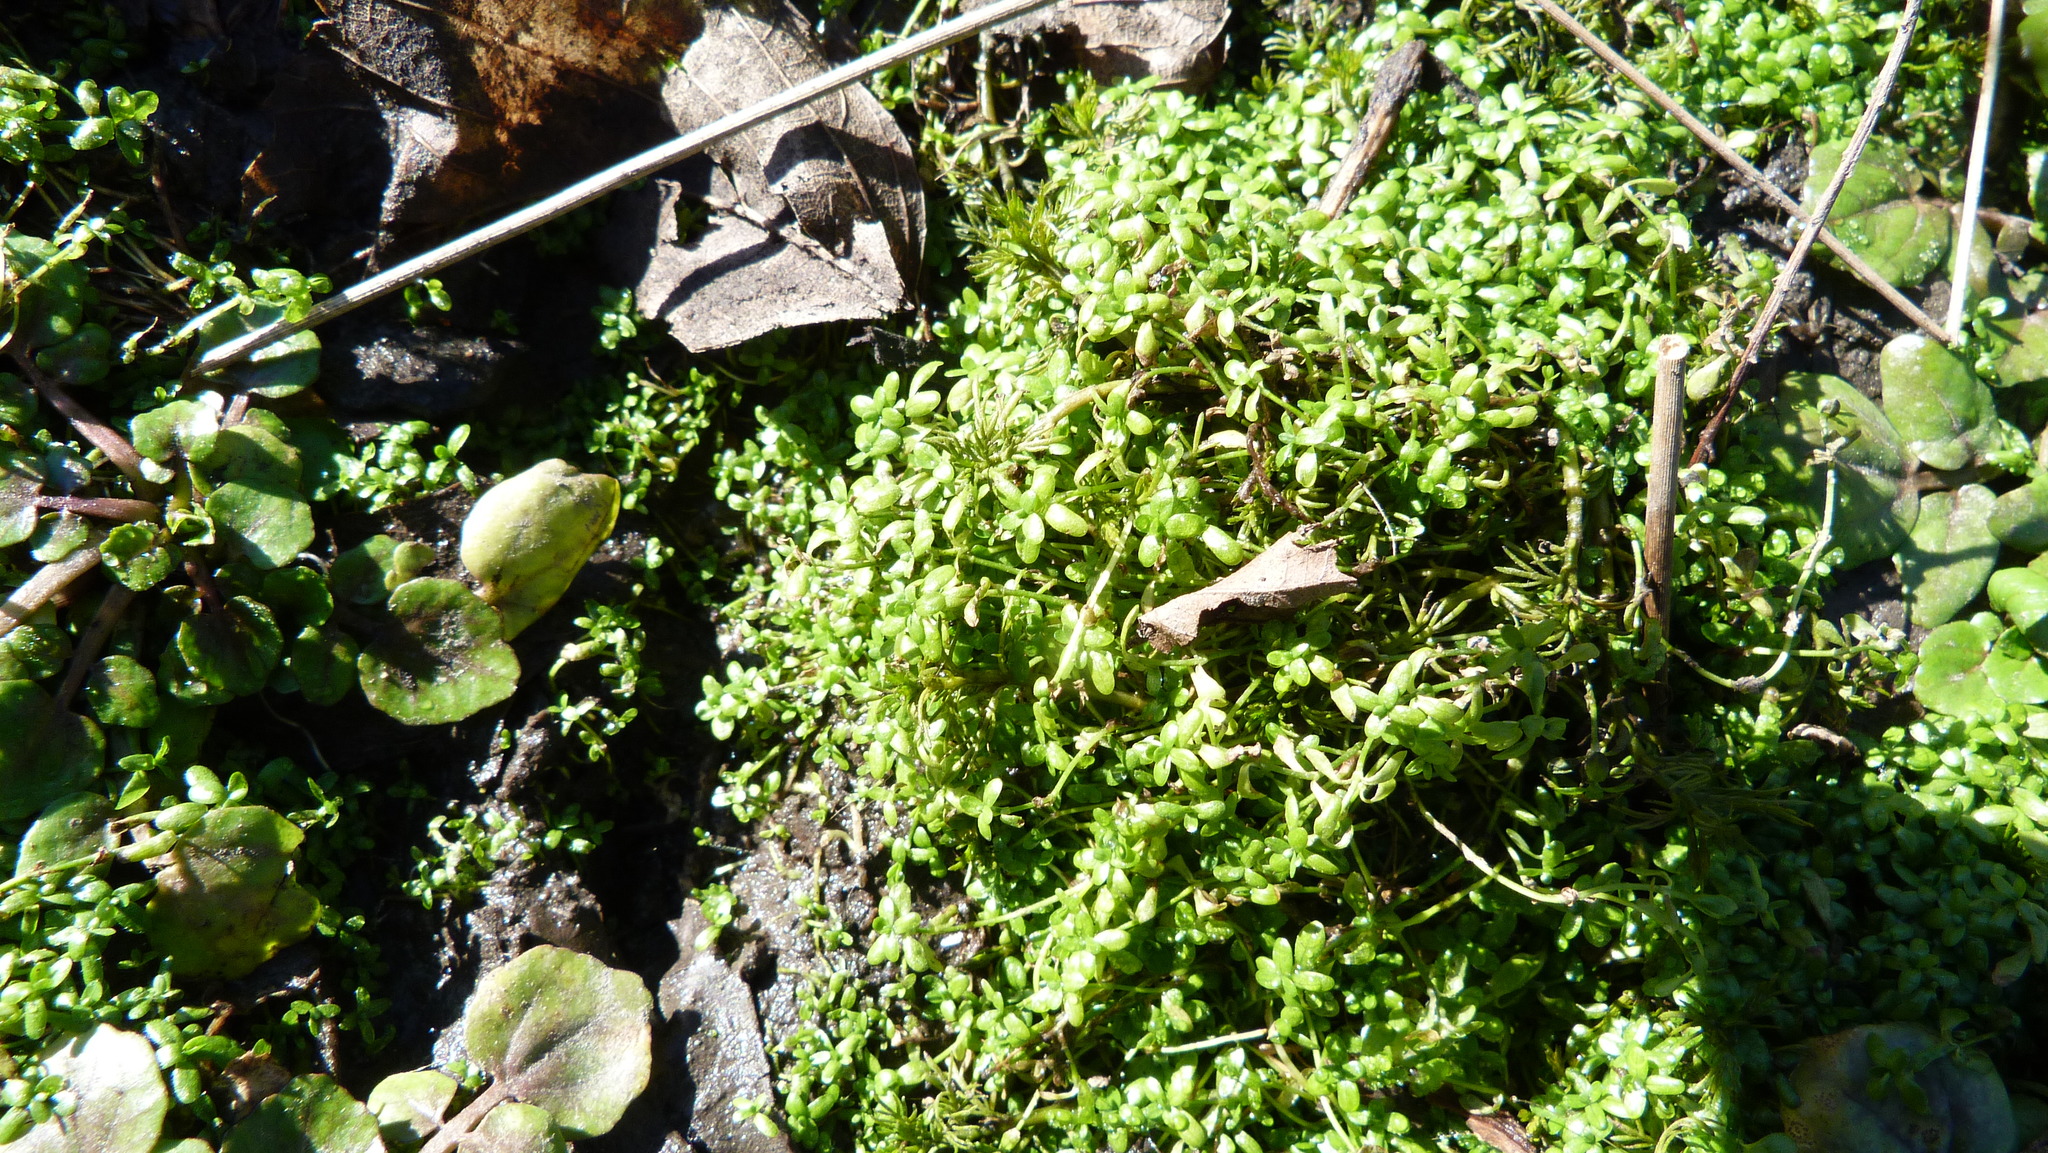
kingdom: Plantae
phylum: Tracheophyta
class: Magnoliopsida
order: Lamiales
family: Plantaginaceae
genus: Callitriche
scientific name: Callitriche stagnalis
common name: Common water-starwort
